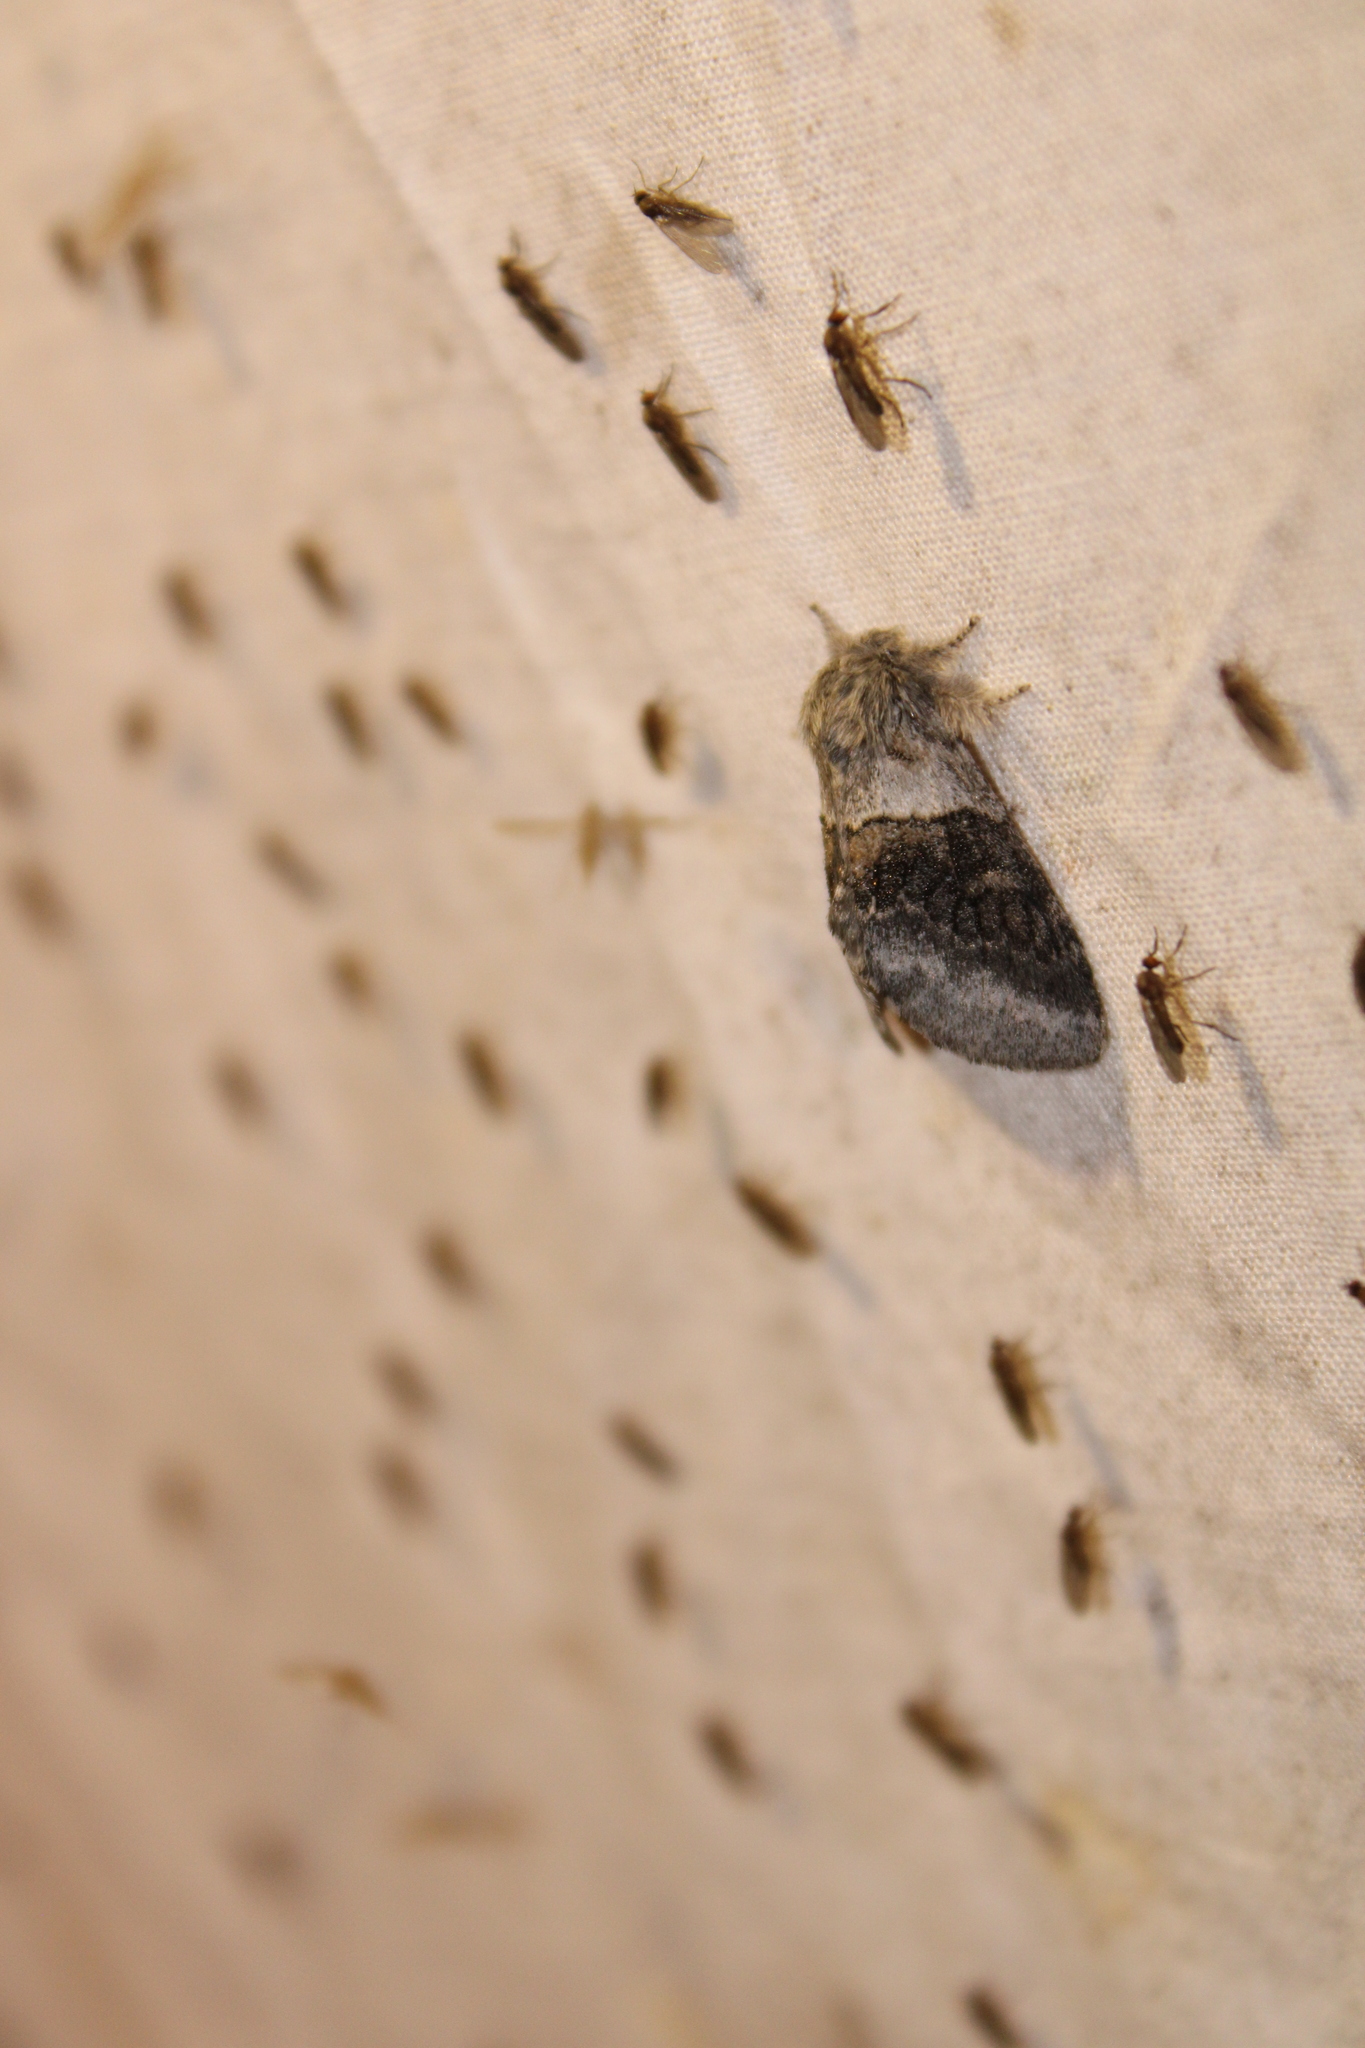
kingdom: Animalia
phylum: Arthropoda
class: Insecta
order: Lepidoptera
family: Notodontidae
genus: Gluphisia
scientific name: Gluphisia septentrionis
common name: Common gluphisia
